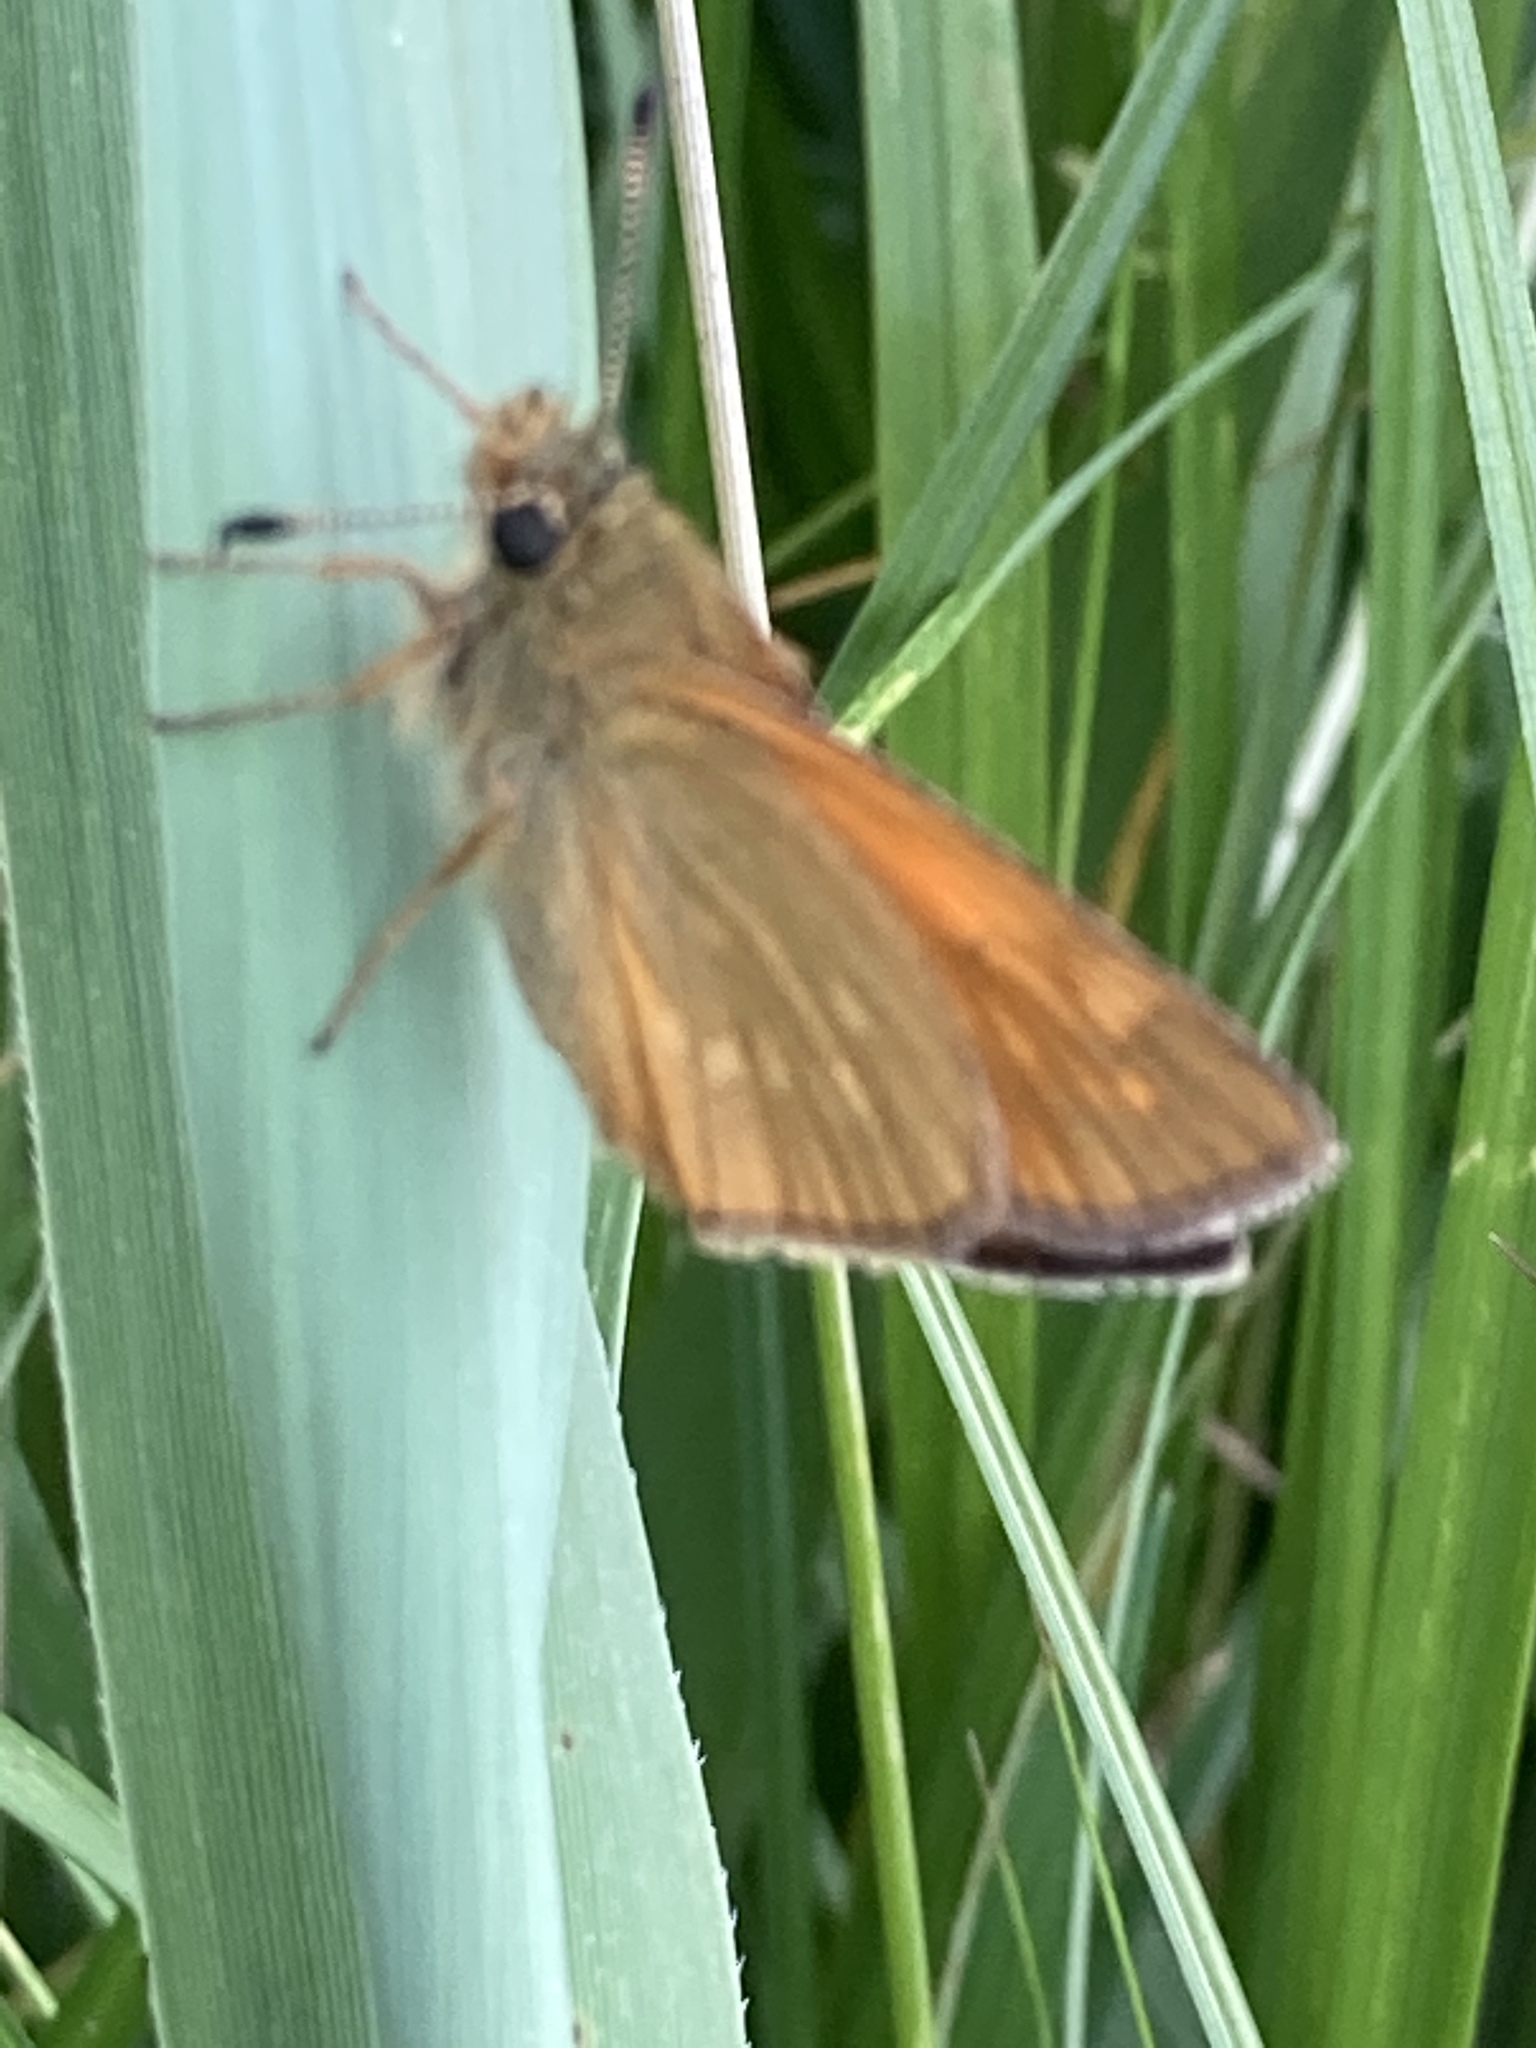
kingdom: Animalia
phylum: Arthropoda
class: Insecta
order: Lepidoptera
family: Hesperiidae
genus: Ochlodes
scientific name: Ochlodes venata
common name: Large skipper
